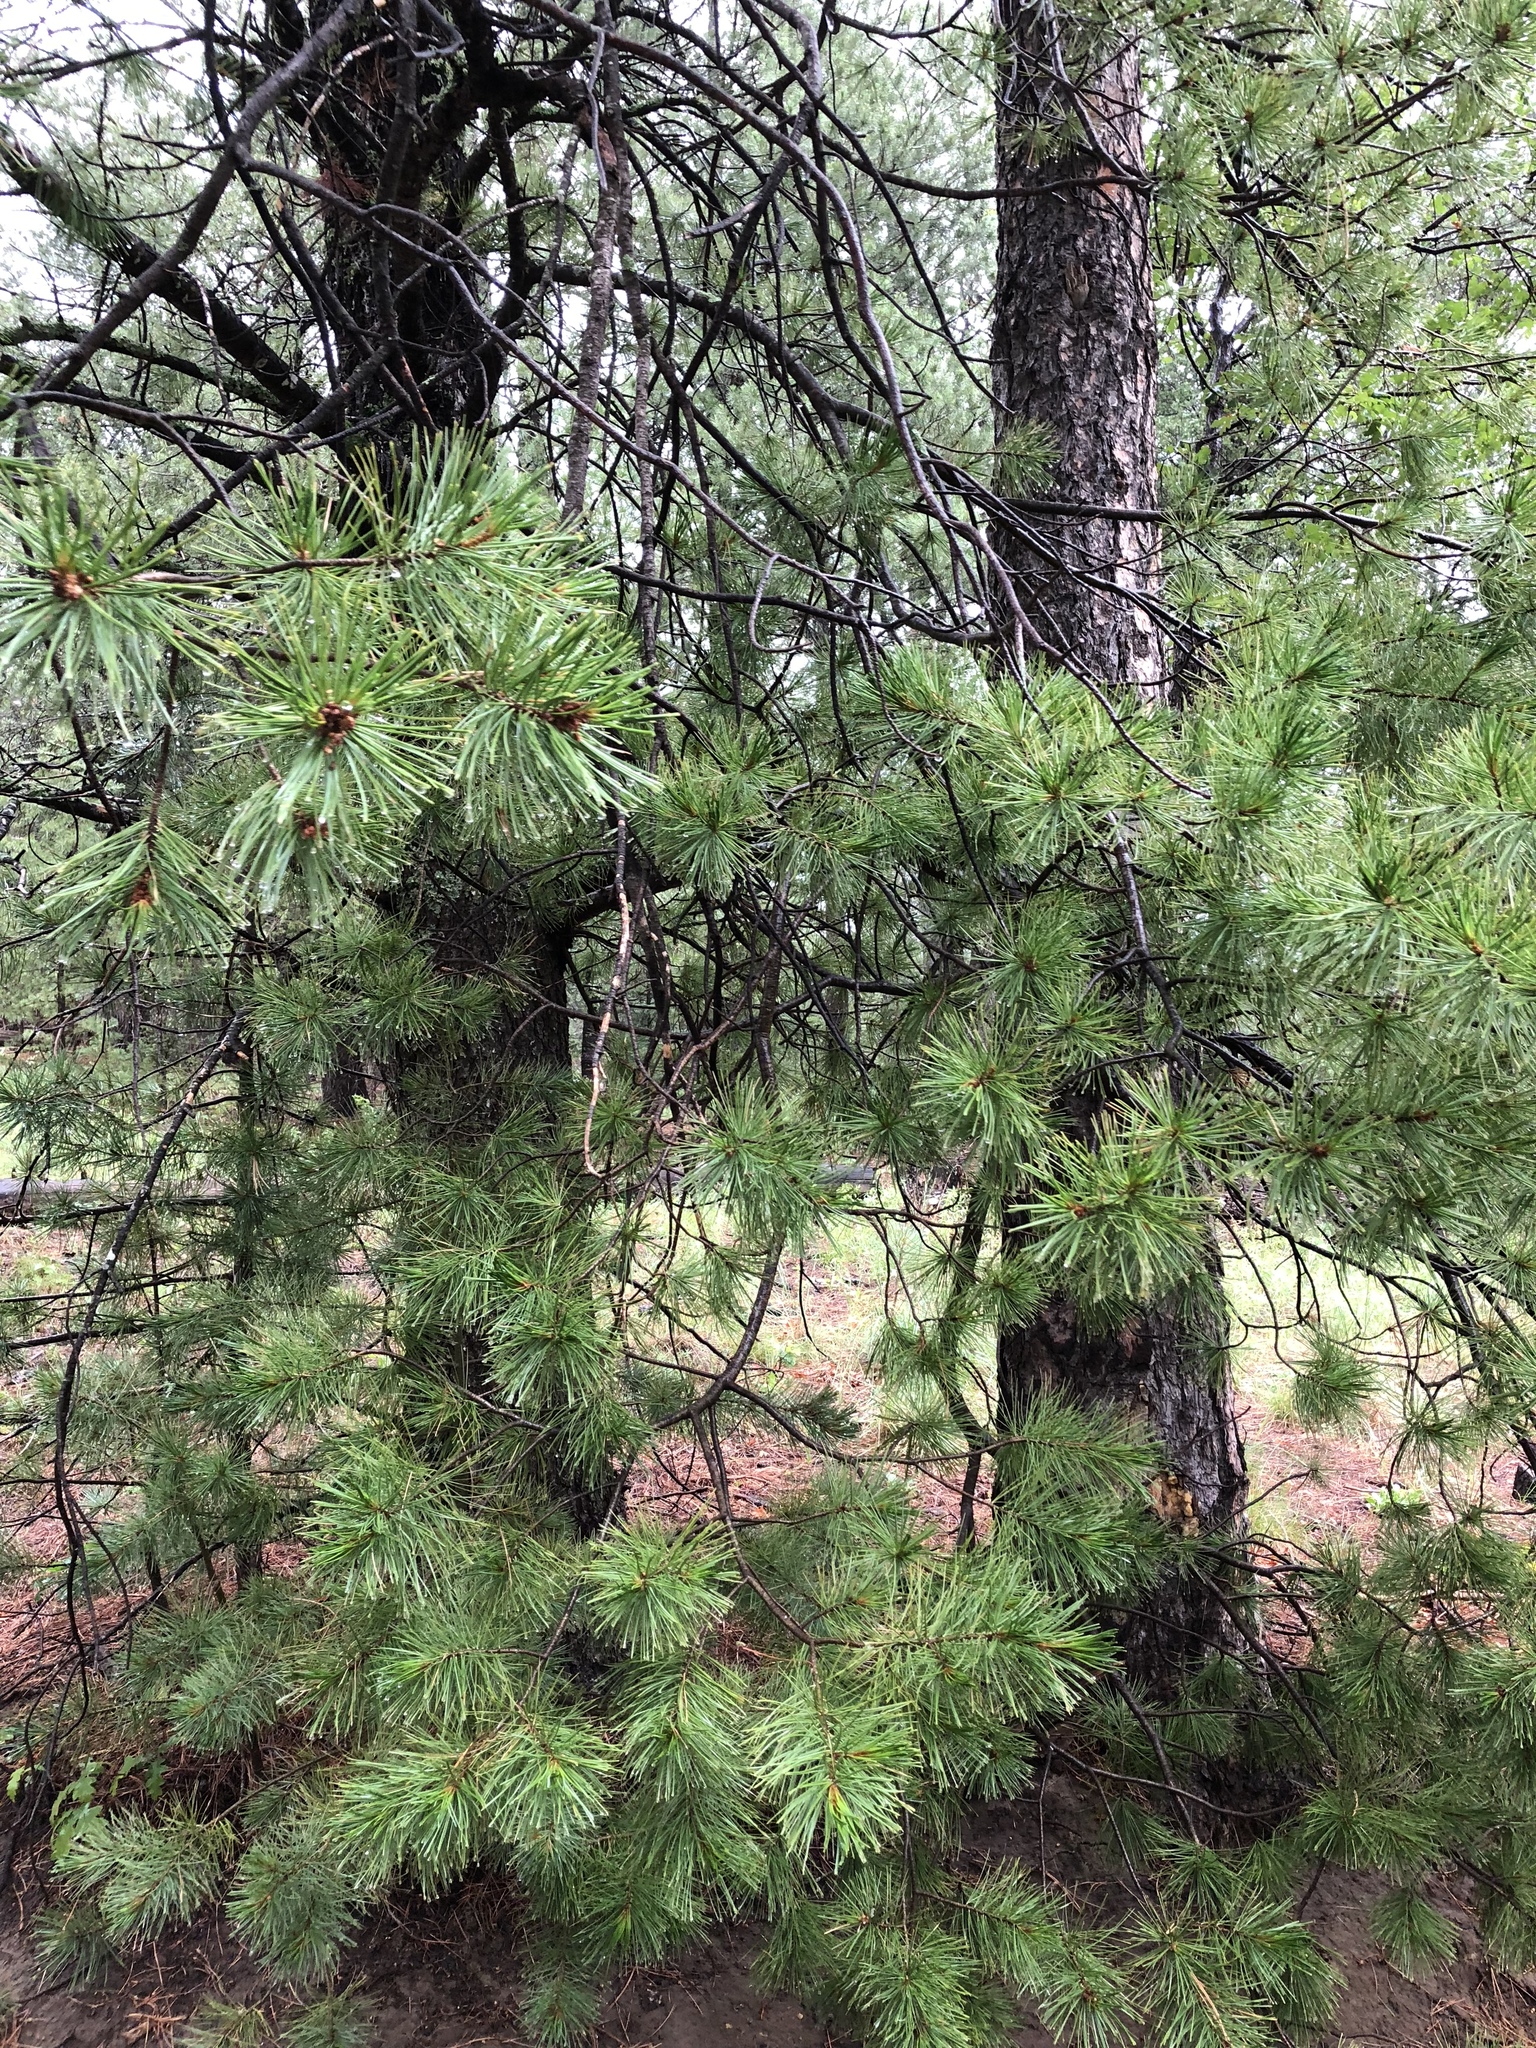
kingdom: Plantae
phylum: Tracheophyta
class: Pinopsida
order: Pinales
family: Pinaceae
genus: Pinus
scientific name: Pinus strobiformis
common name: Southwestern white pine
